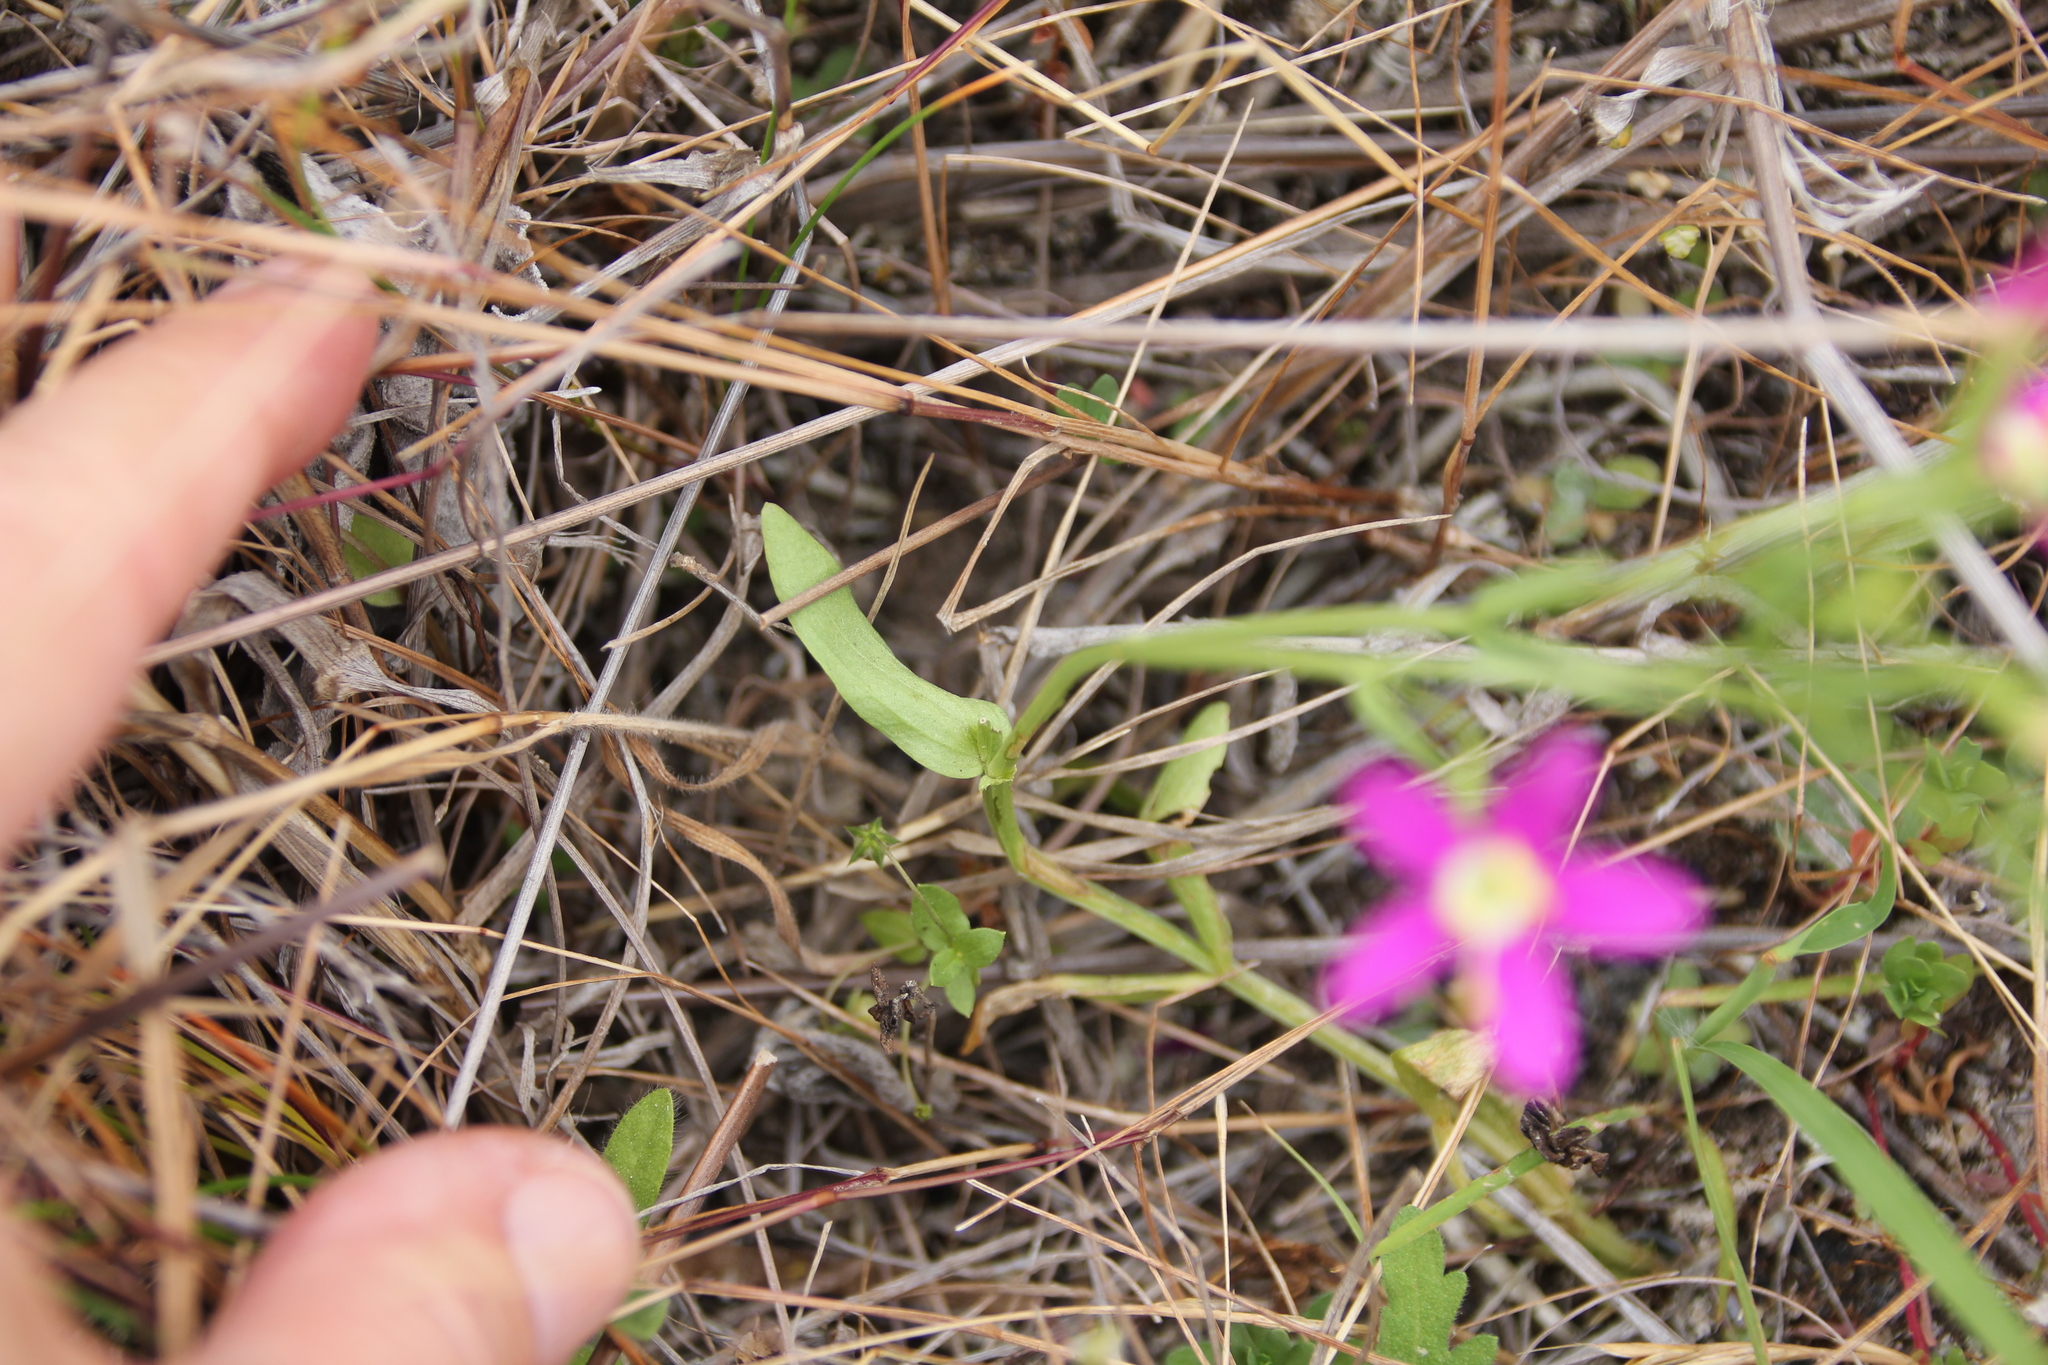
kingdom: Plantae
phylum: Tracheophyta
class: Magnoliopsida
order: Gentianales
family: Gentianaceae
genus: Zeltnera
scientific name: Zeltnera venusta
